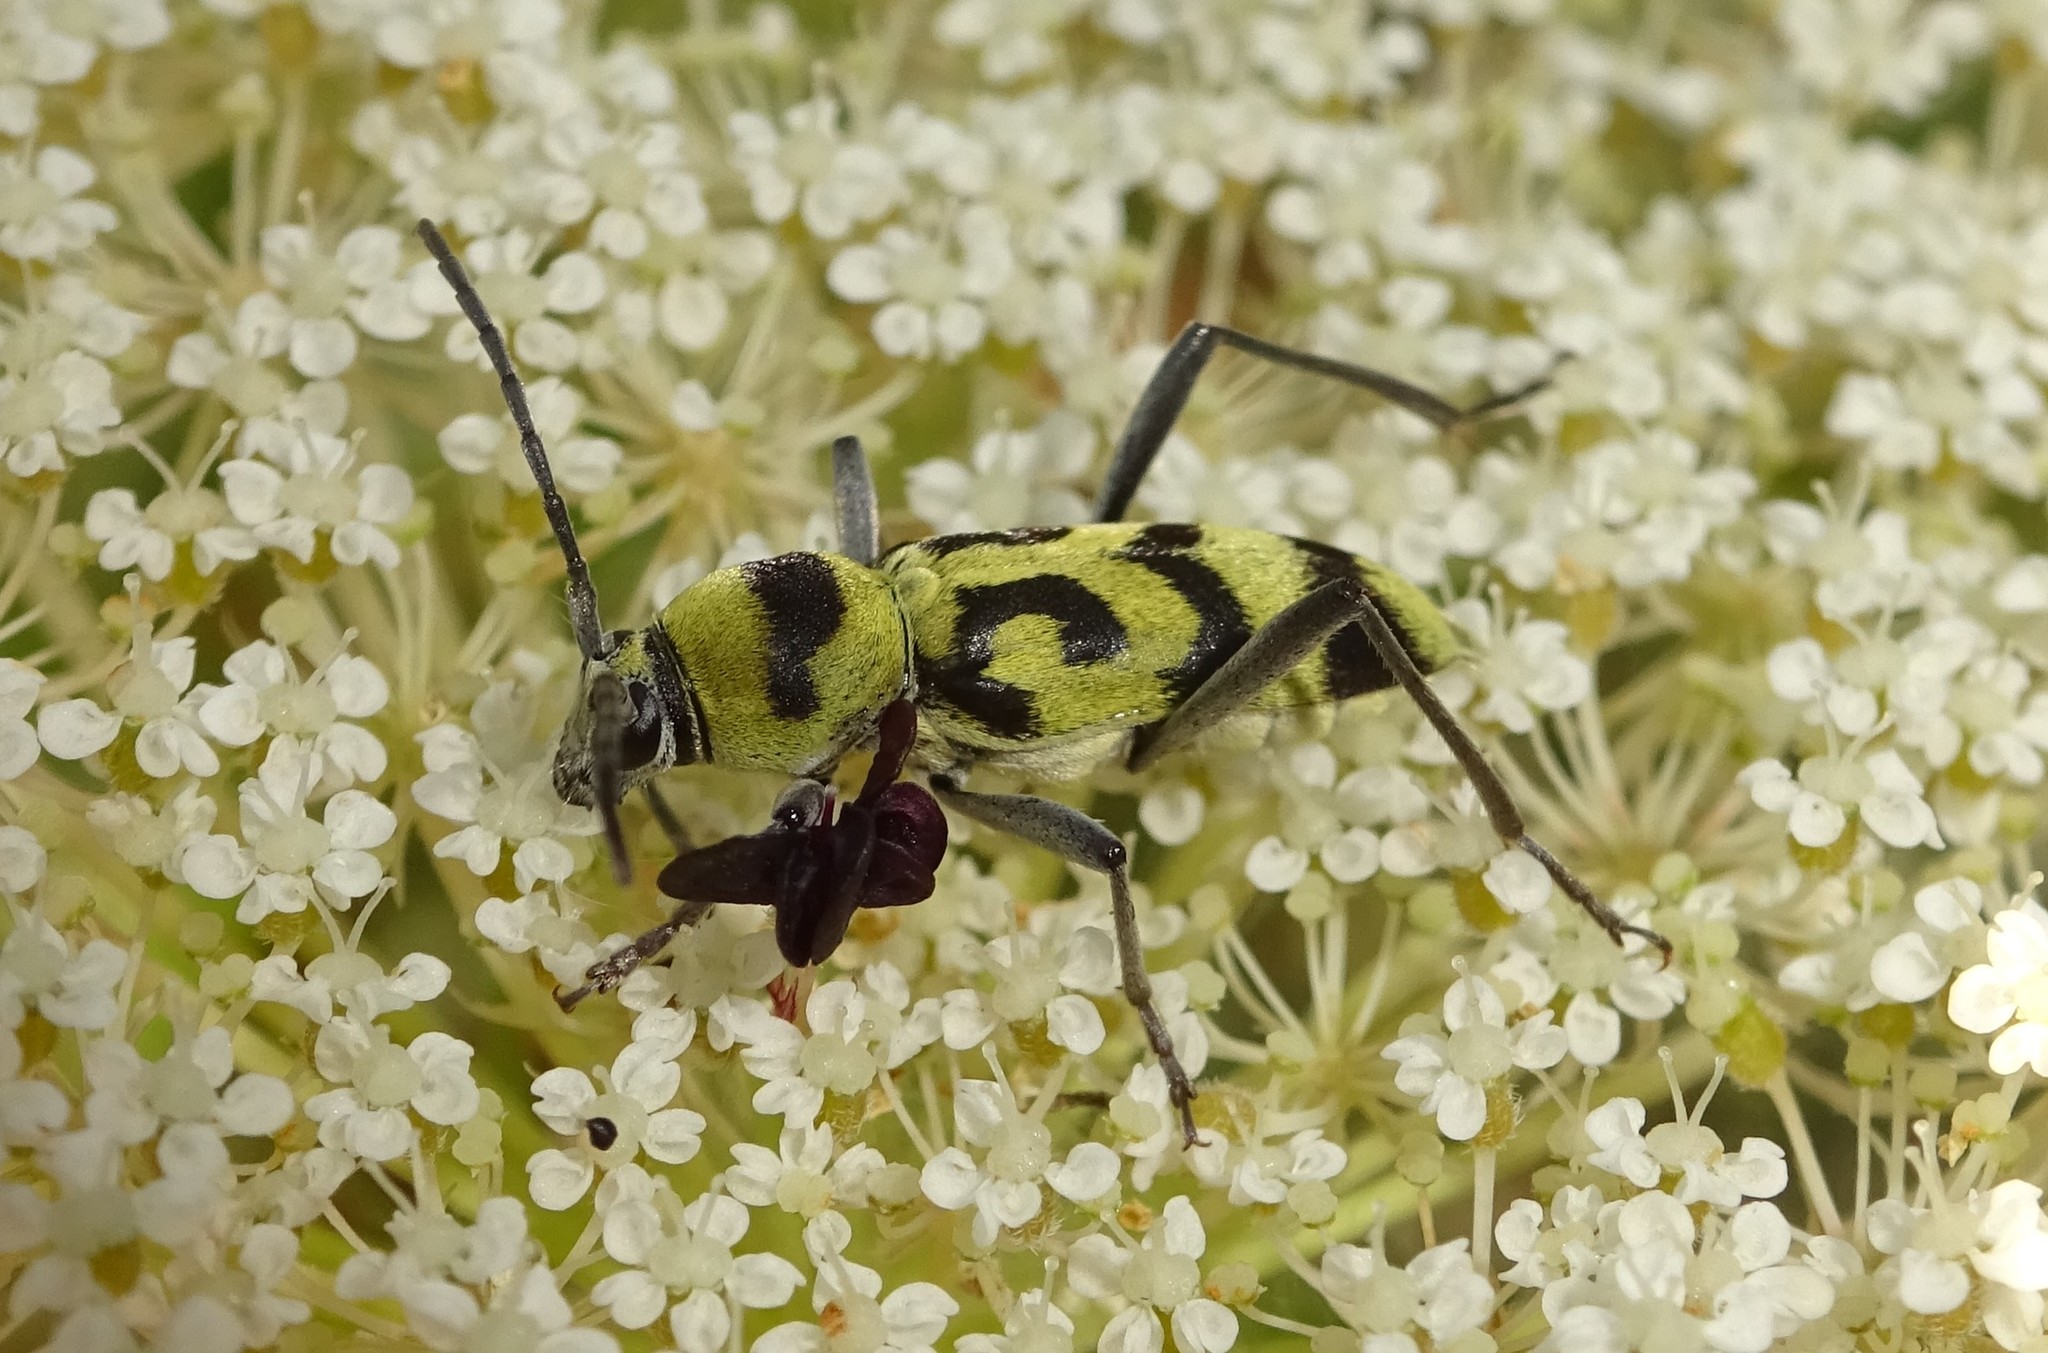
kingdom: Animalia
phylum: Arthropoda
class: Insecta
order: Coleoptera
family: Cerambycidae
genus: Chlorophorus
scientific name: Chlorophorus varius
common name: Grape wood borer
